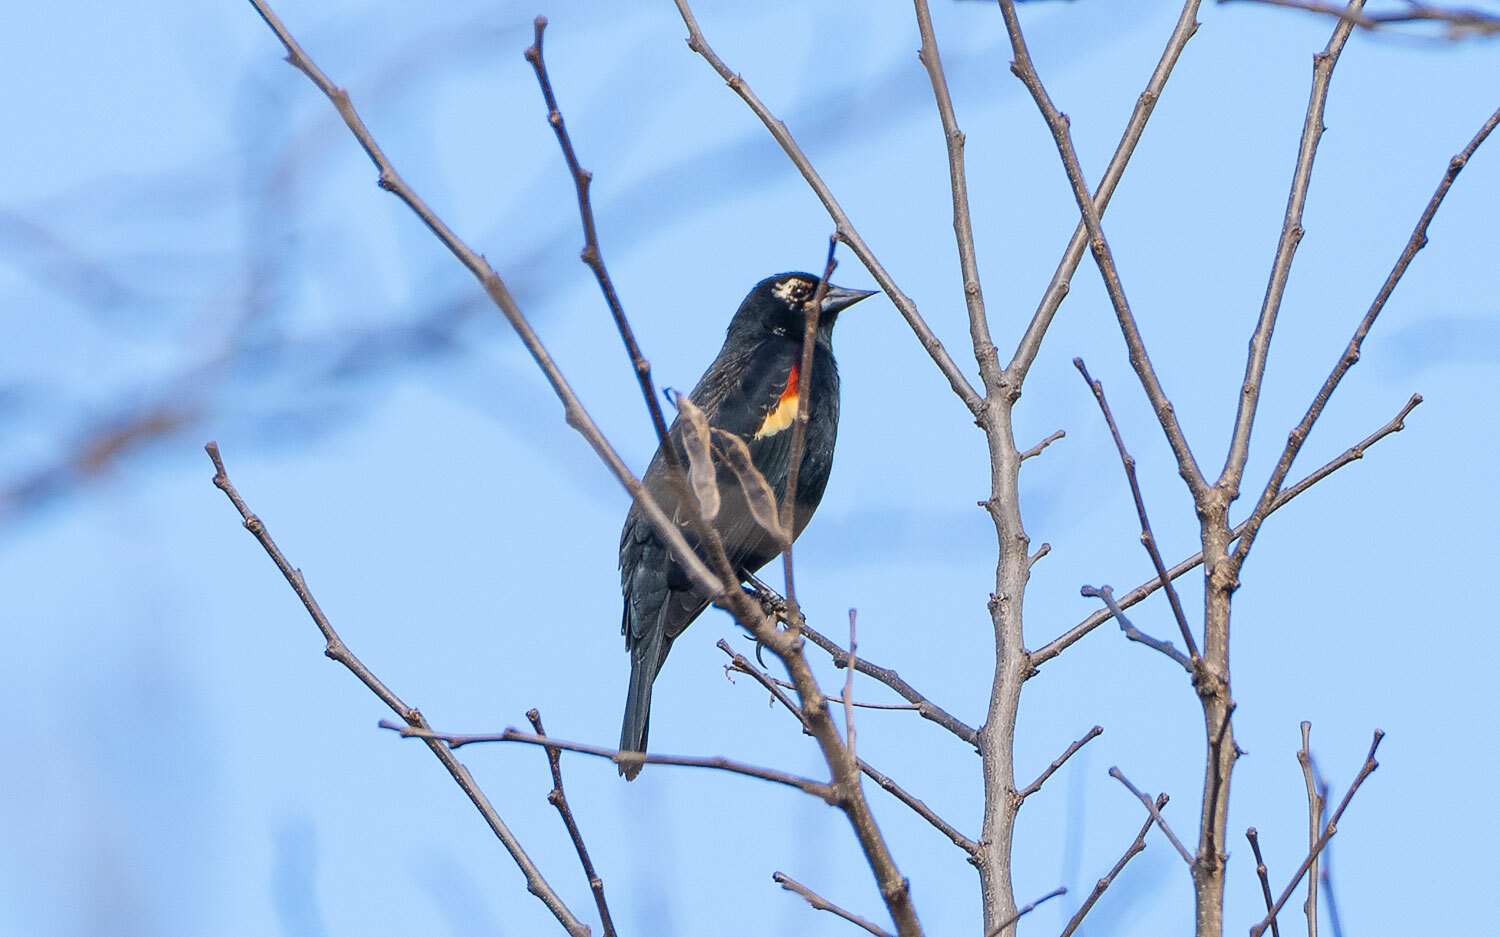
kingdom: Animalia
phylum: Chordata
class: Aves
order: Passeriformes
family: Icteridae
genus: Agelaius
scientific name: Agelaius phoeniceus
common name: Red-winged blackbird
